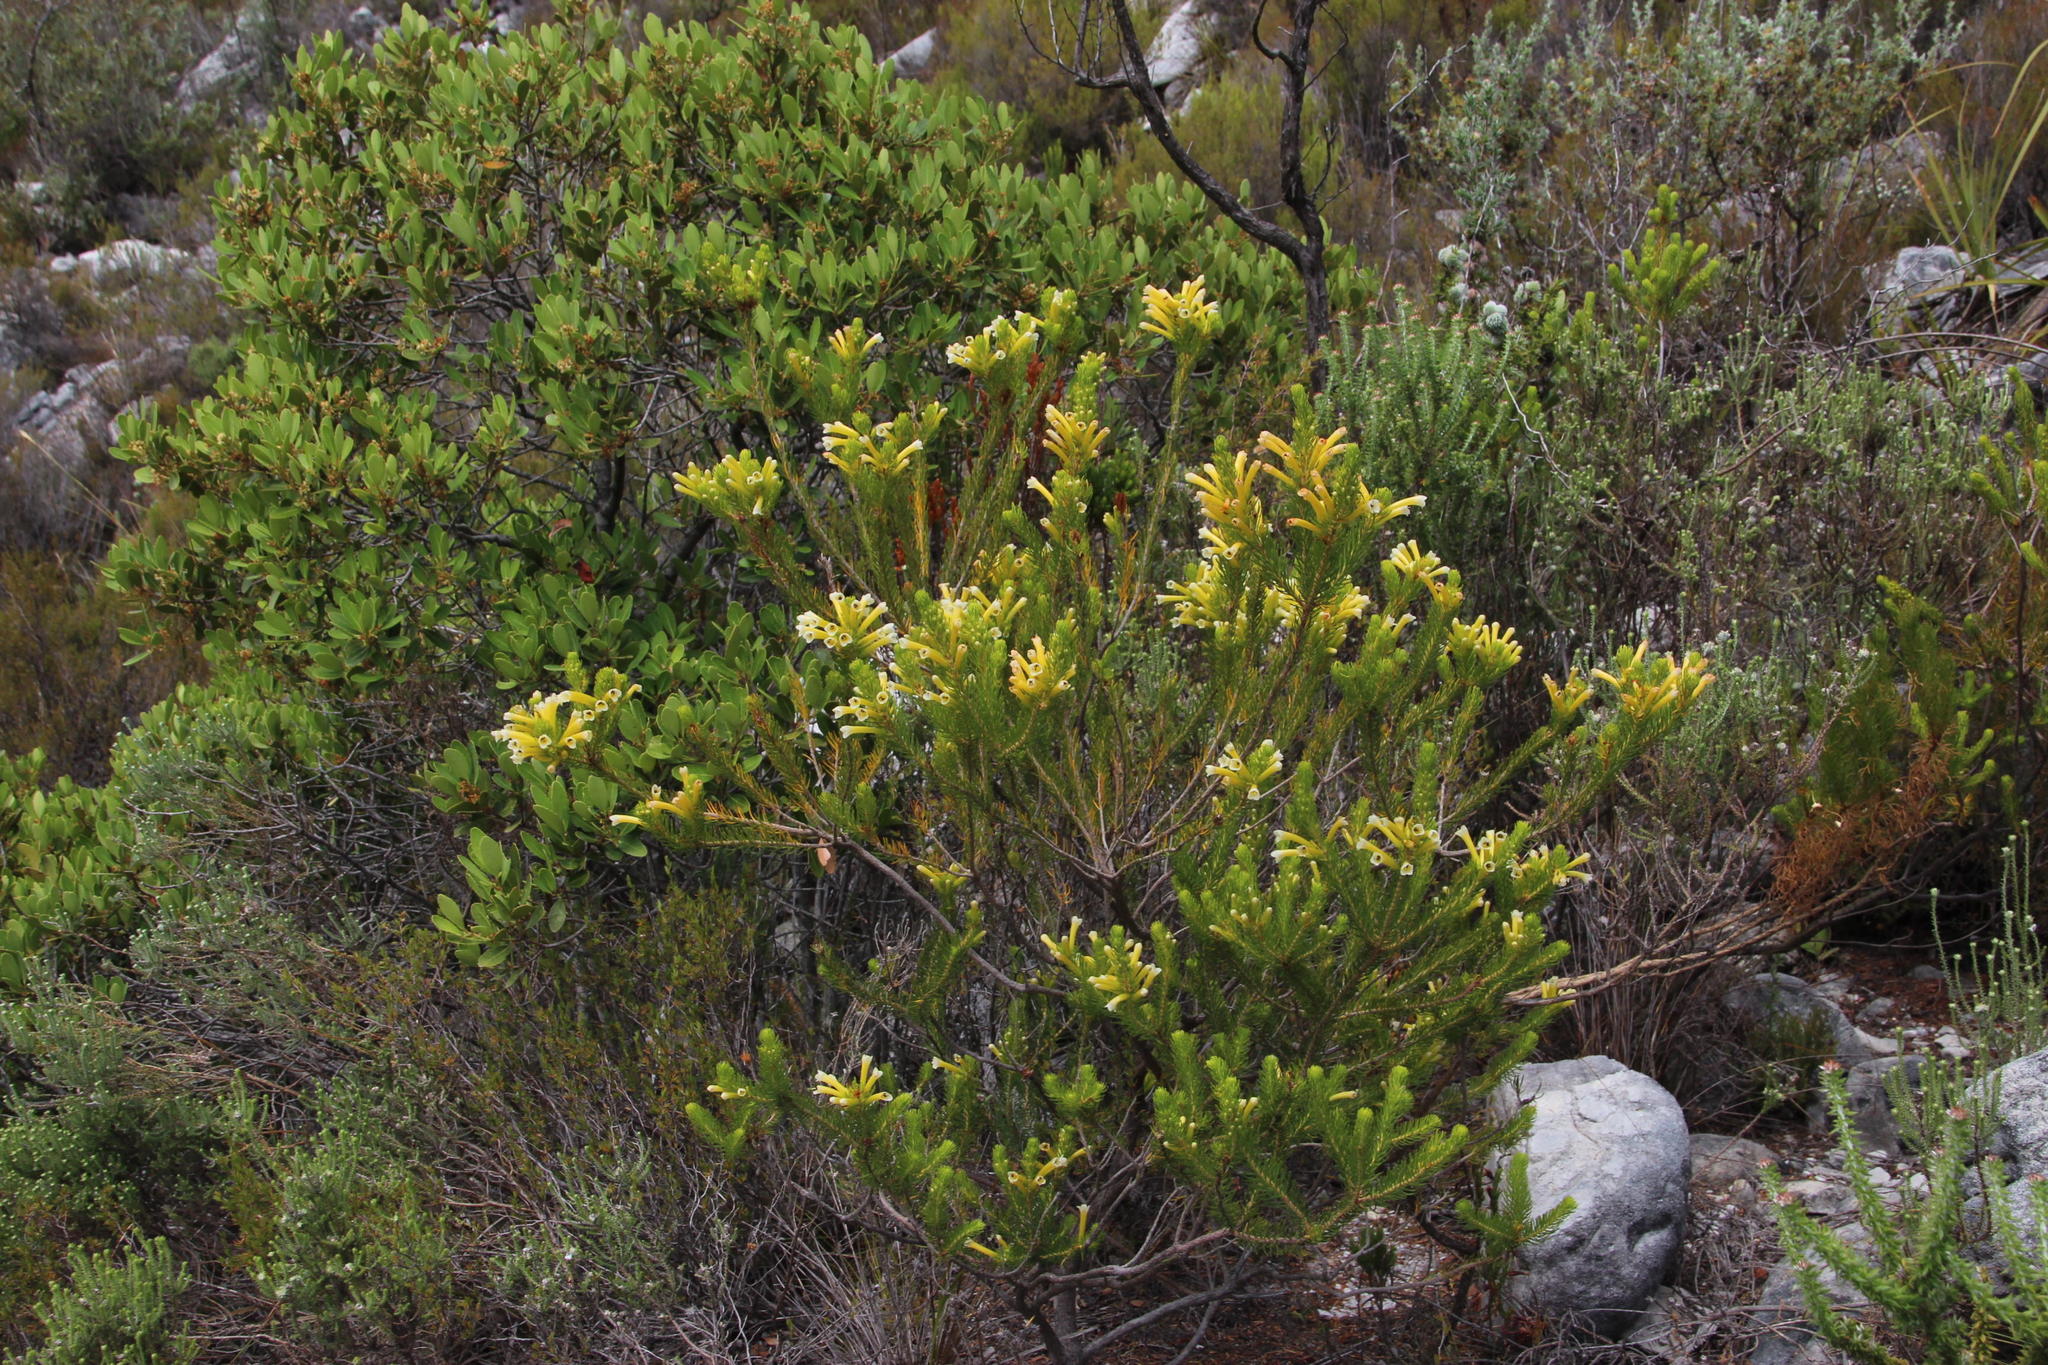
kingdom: Plantae
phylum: Tracheophyta
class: Magnoliopsida
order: Ericales
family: Ericaceae
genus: Erica
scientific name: Erica pinea
